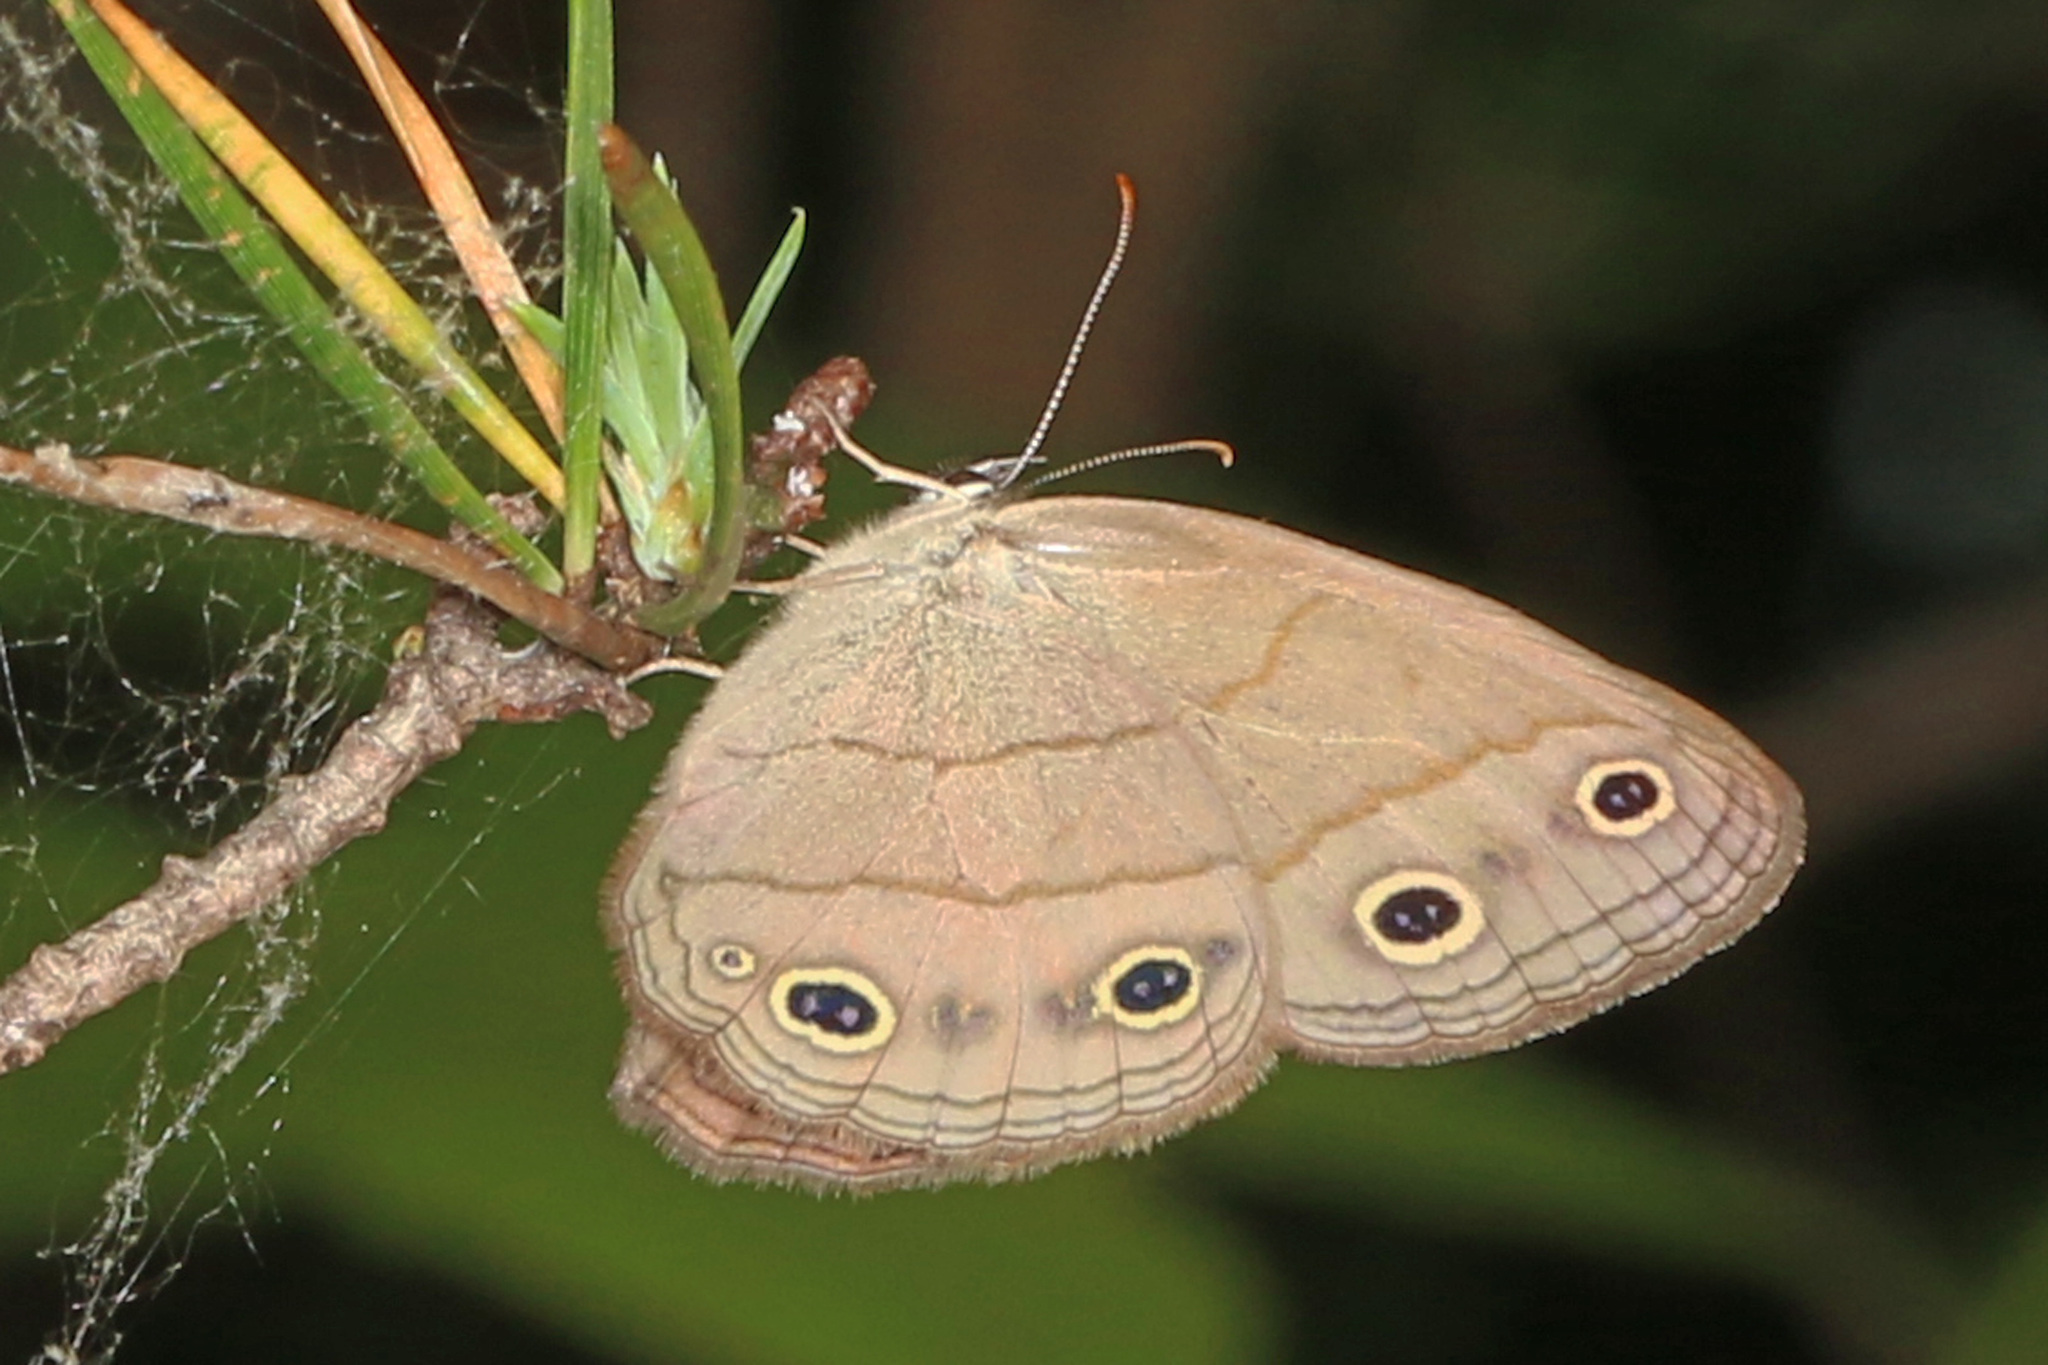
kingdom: Animalia
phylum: Arthropoda
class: Insecta
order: Lepidoptera
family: Nymphalidae
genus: Euptychia
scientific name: Euptychia cymela
